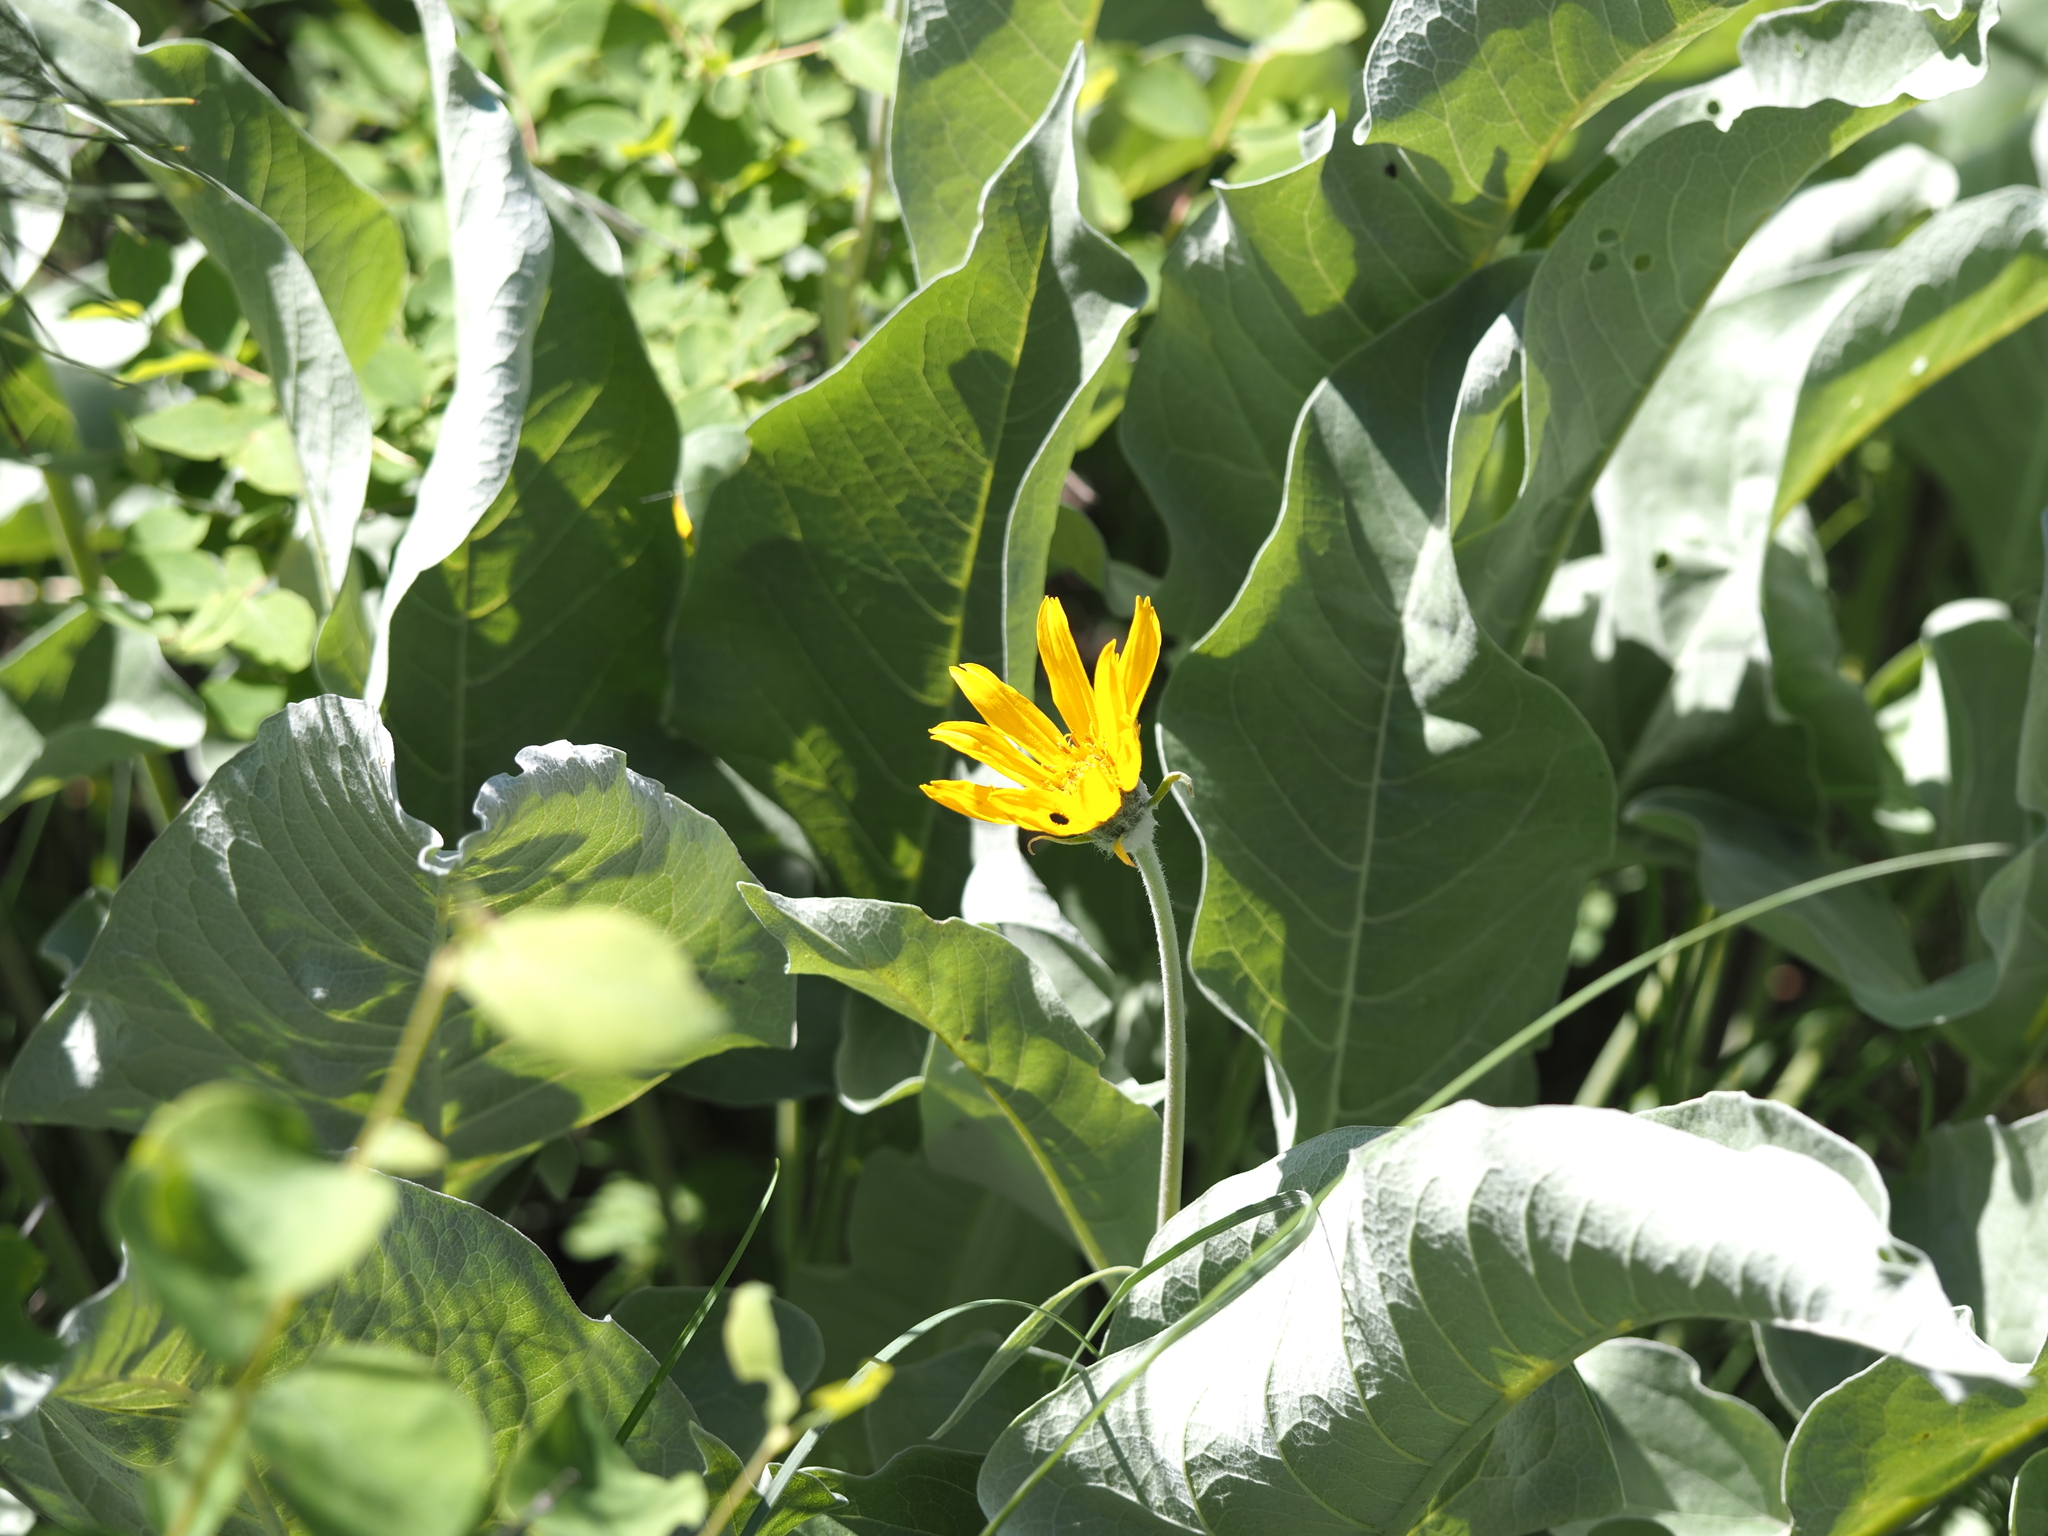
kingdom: Plantae
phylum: Tracheophyta
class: Magnoliopsida
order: Asterales
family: Asteraceae
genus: Wyethia
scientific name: Wyethia sagittata
